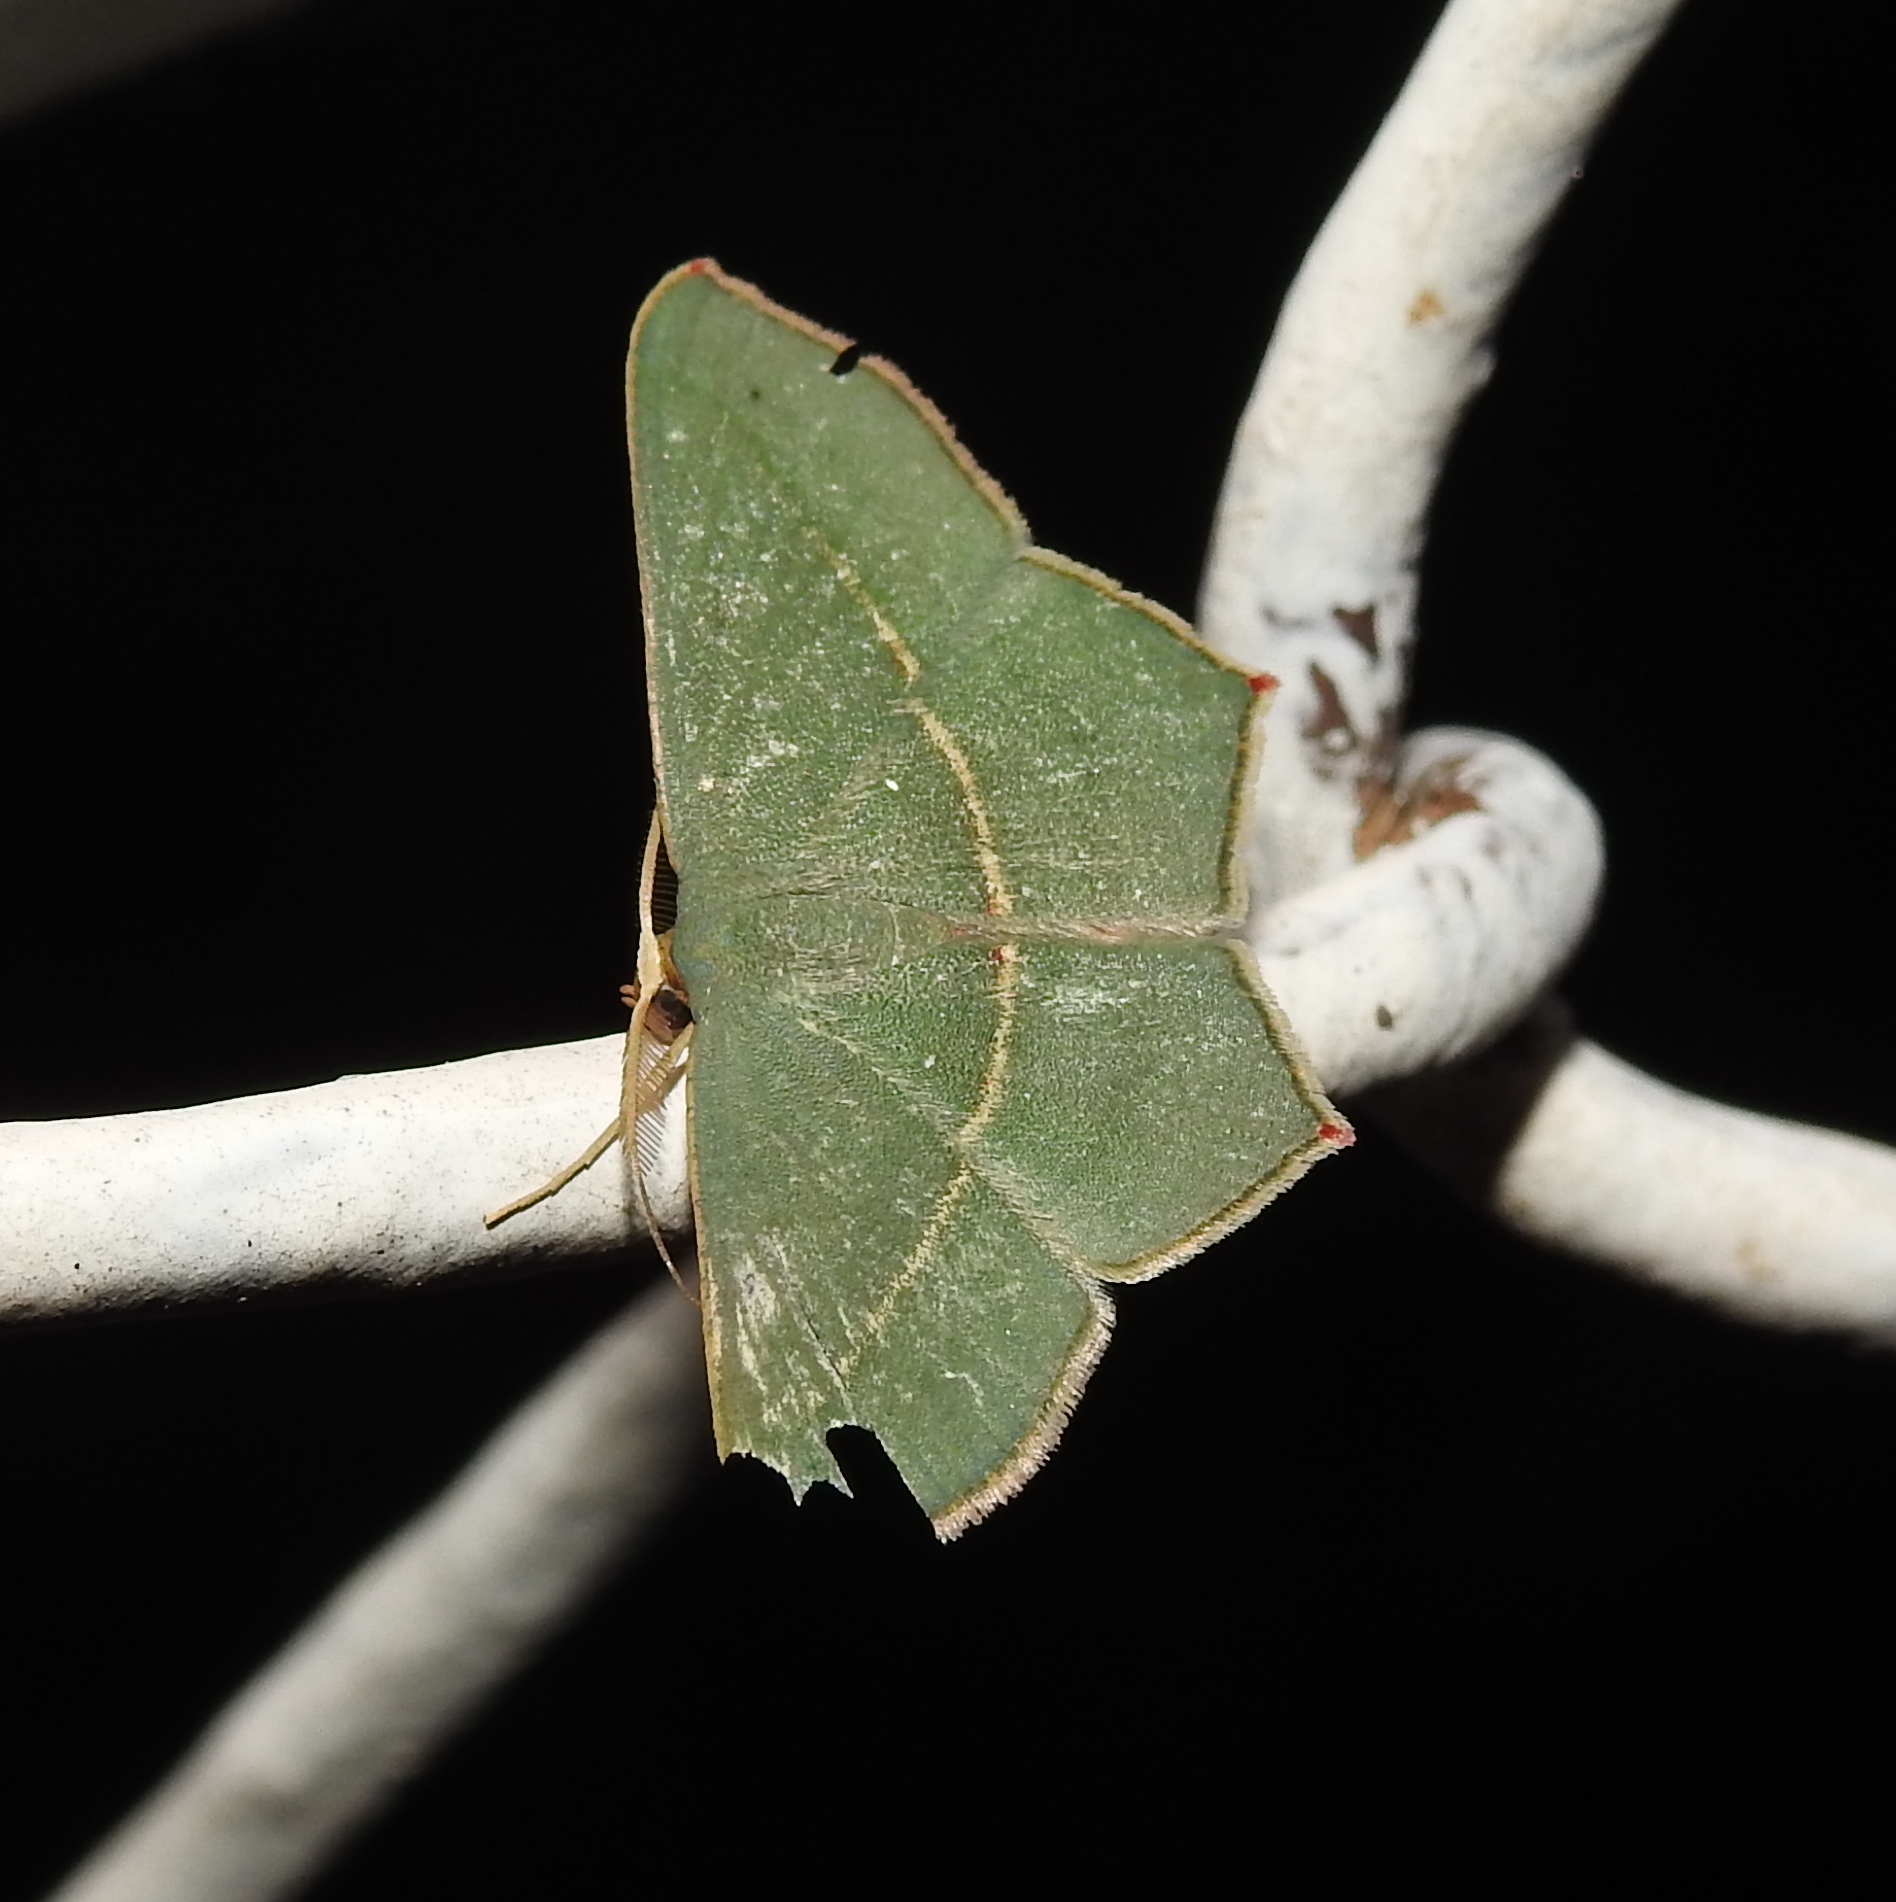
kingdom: Animalia
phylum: Arthropoda
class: Insecta
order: Lepidoptera
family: Geometridae
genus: Traminda
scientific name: Traminda mundissima
